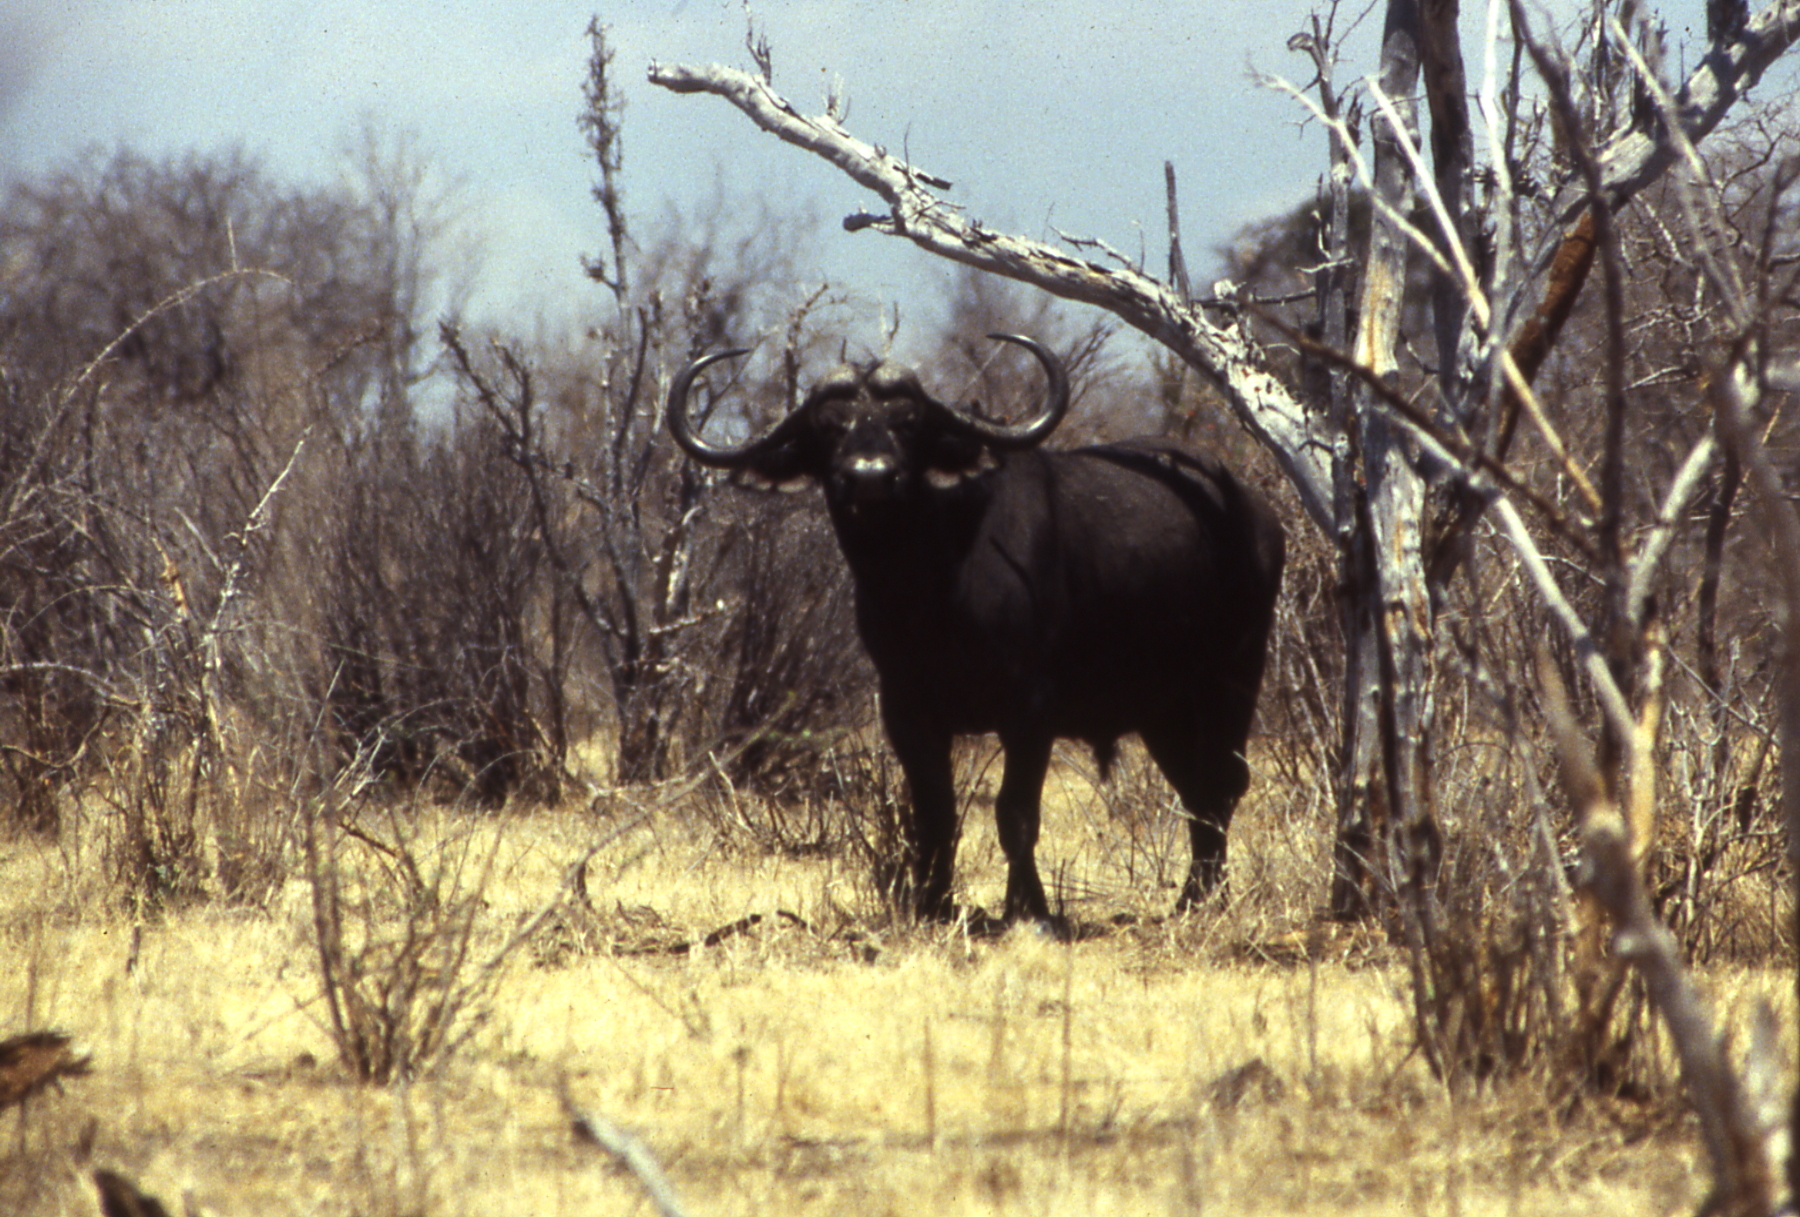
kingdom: Animalia
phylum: Chordata
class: Mammalia
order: Artiodactyla
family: Bovidae
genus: Syncerus
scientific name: Syncerus caffer
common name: African buffalo
